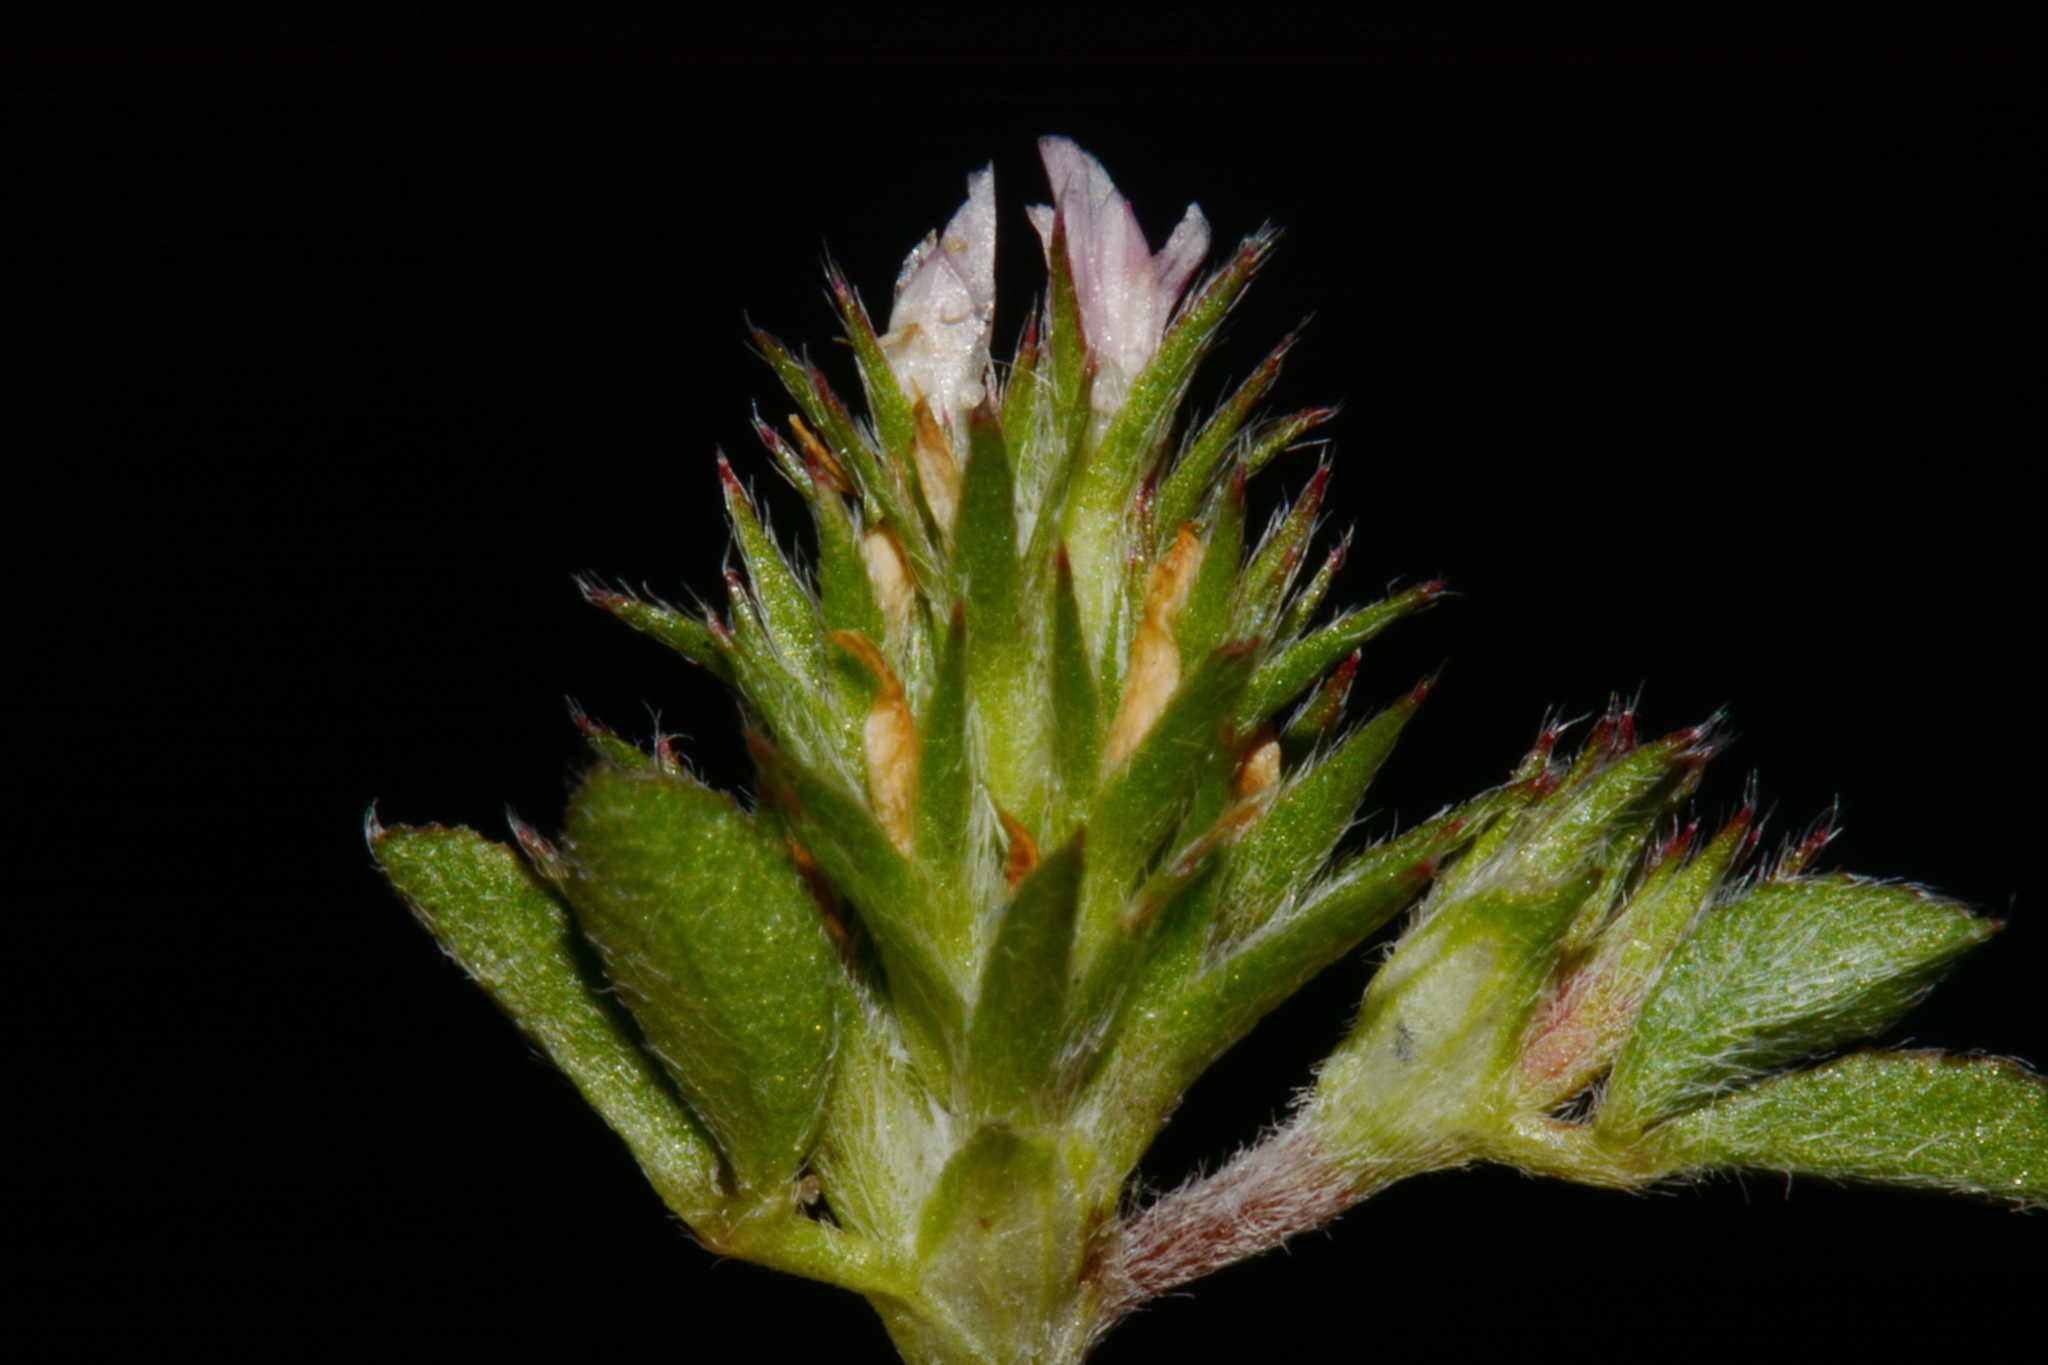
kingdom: Plantae
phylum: Tracheophyta
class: Magnoliopsida
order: Fabales
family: Fabaceae
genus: Trifolium
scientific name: Trifolium scabrum
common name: Rough clover
